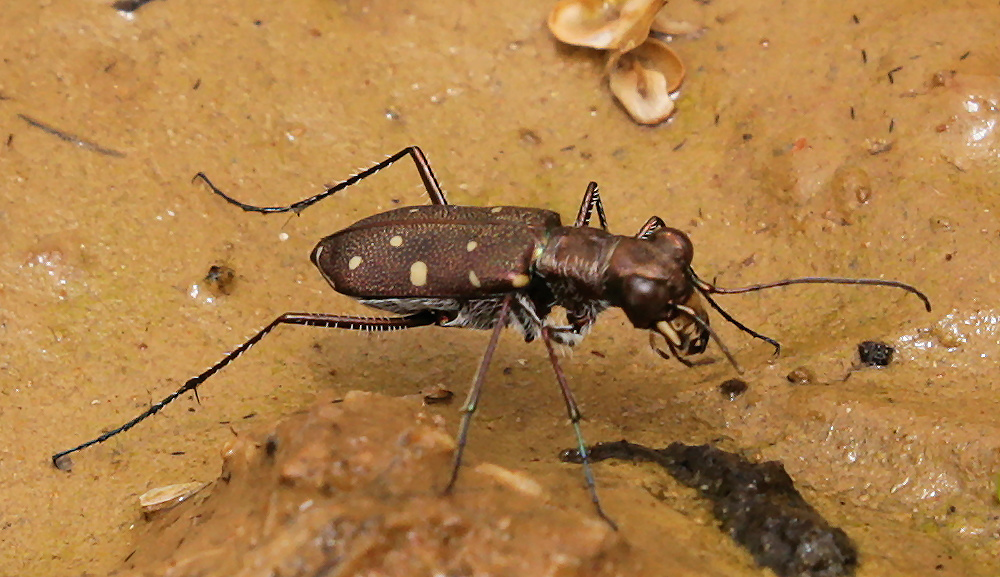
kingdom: Animalia
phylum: Arthropoda
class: Insecta
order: Coleoptera
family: Carabidae
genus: Cylindera
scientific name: Cylindera disjuncta
